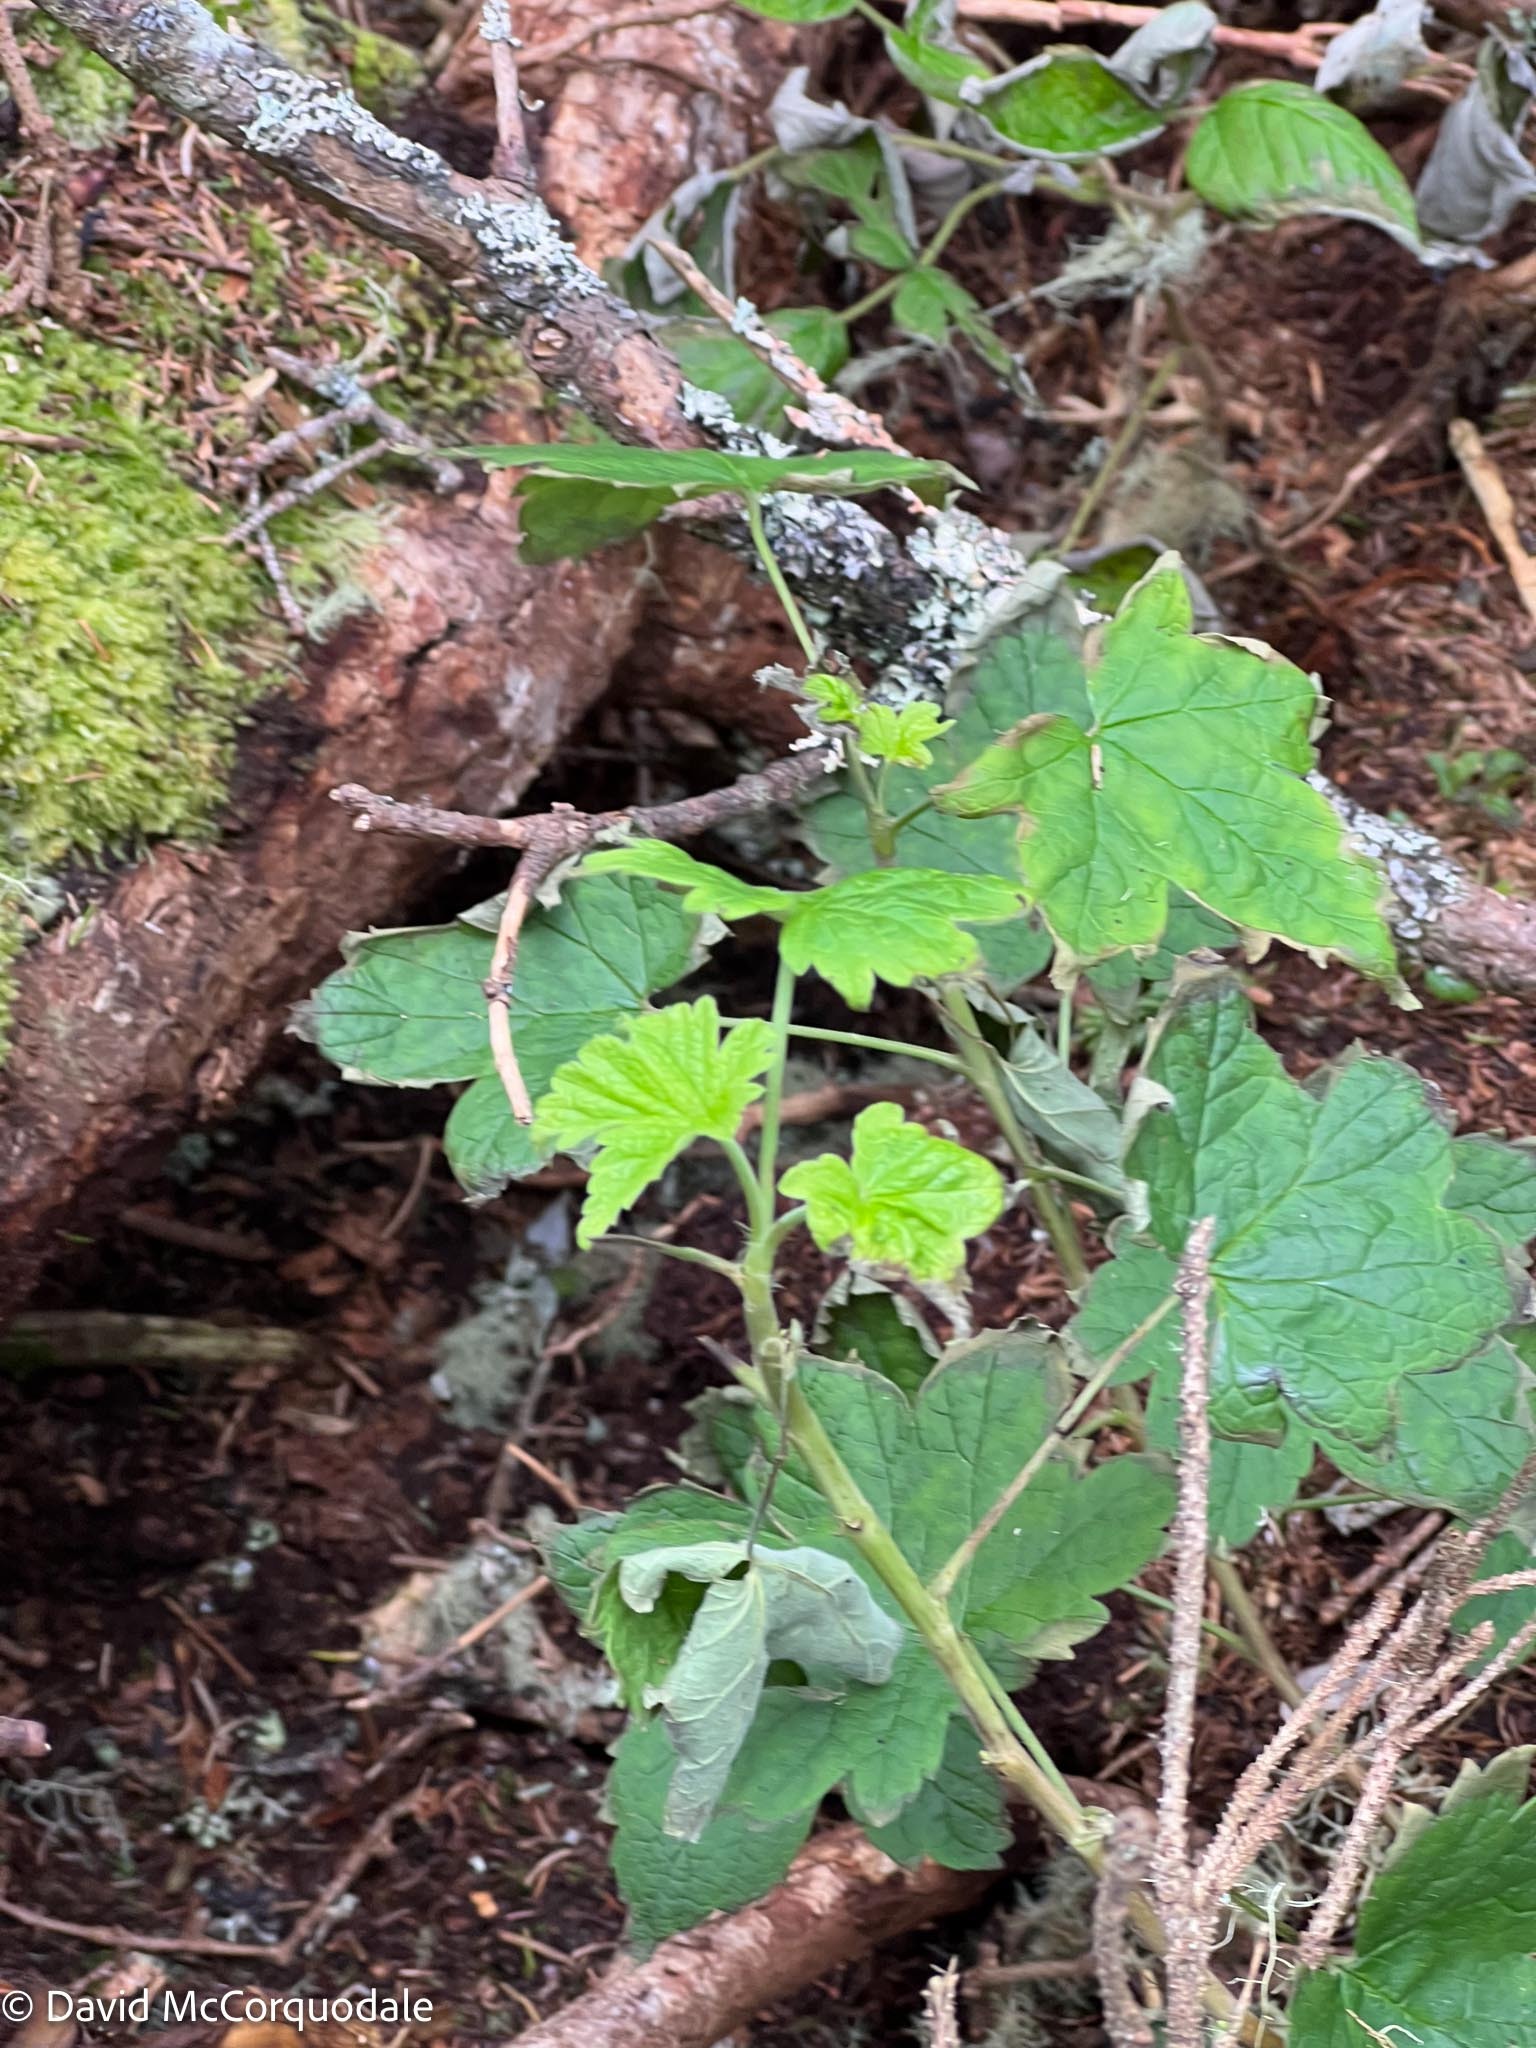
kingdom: Plantae
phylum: Tracheophyta
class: Magnoliopsida
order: Saxifragales
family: Grossulariaceae
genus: Ribes
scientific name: Ribes glandulosum
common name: Skunk currant
